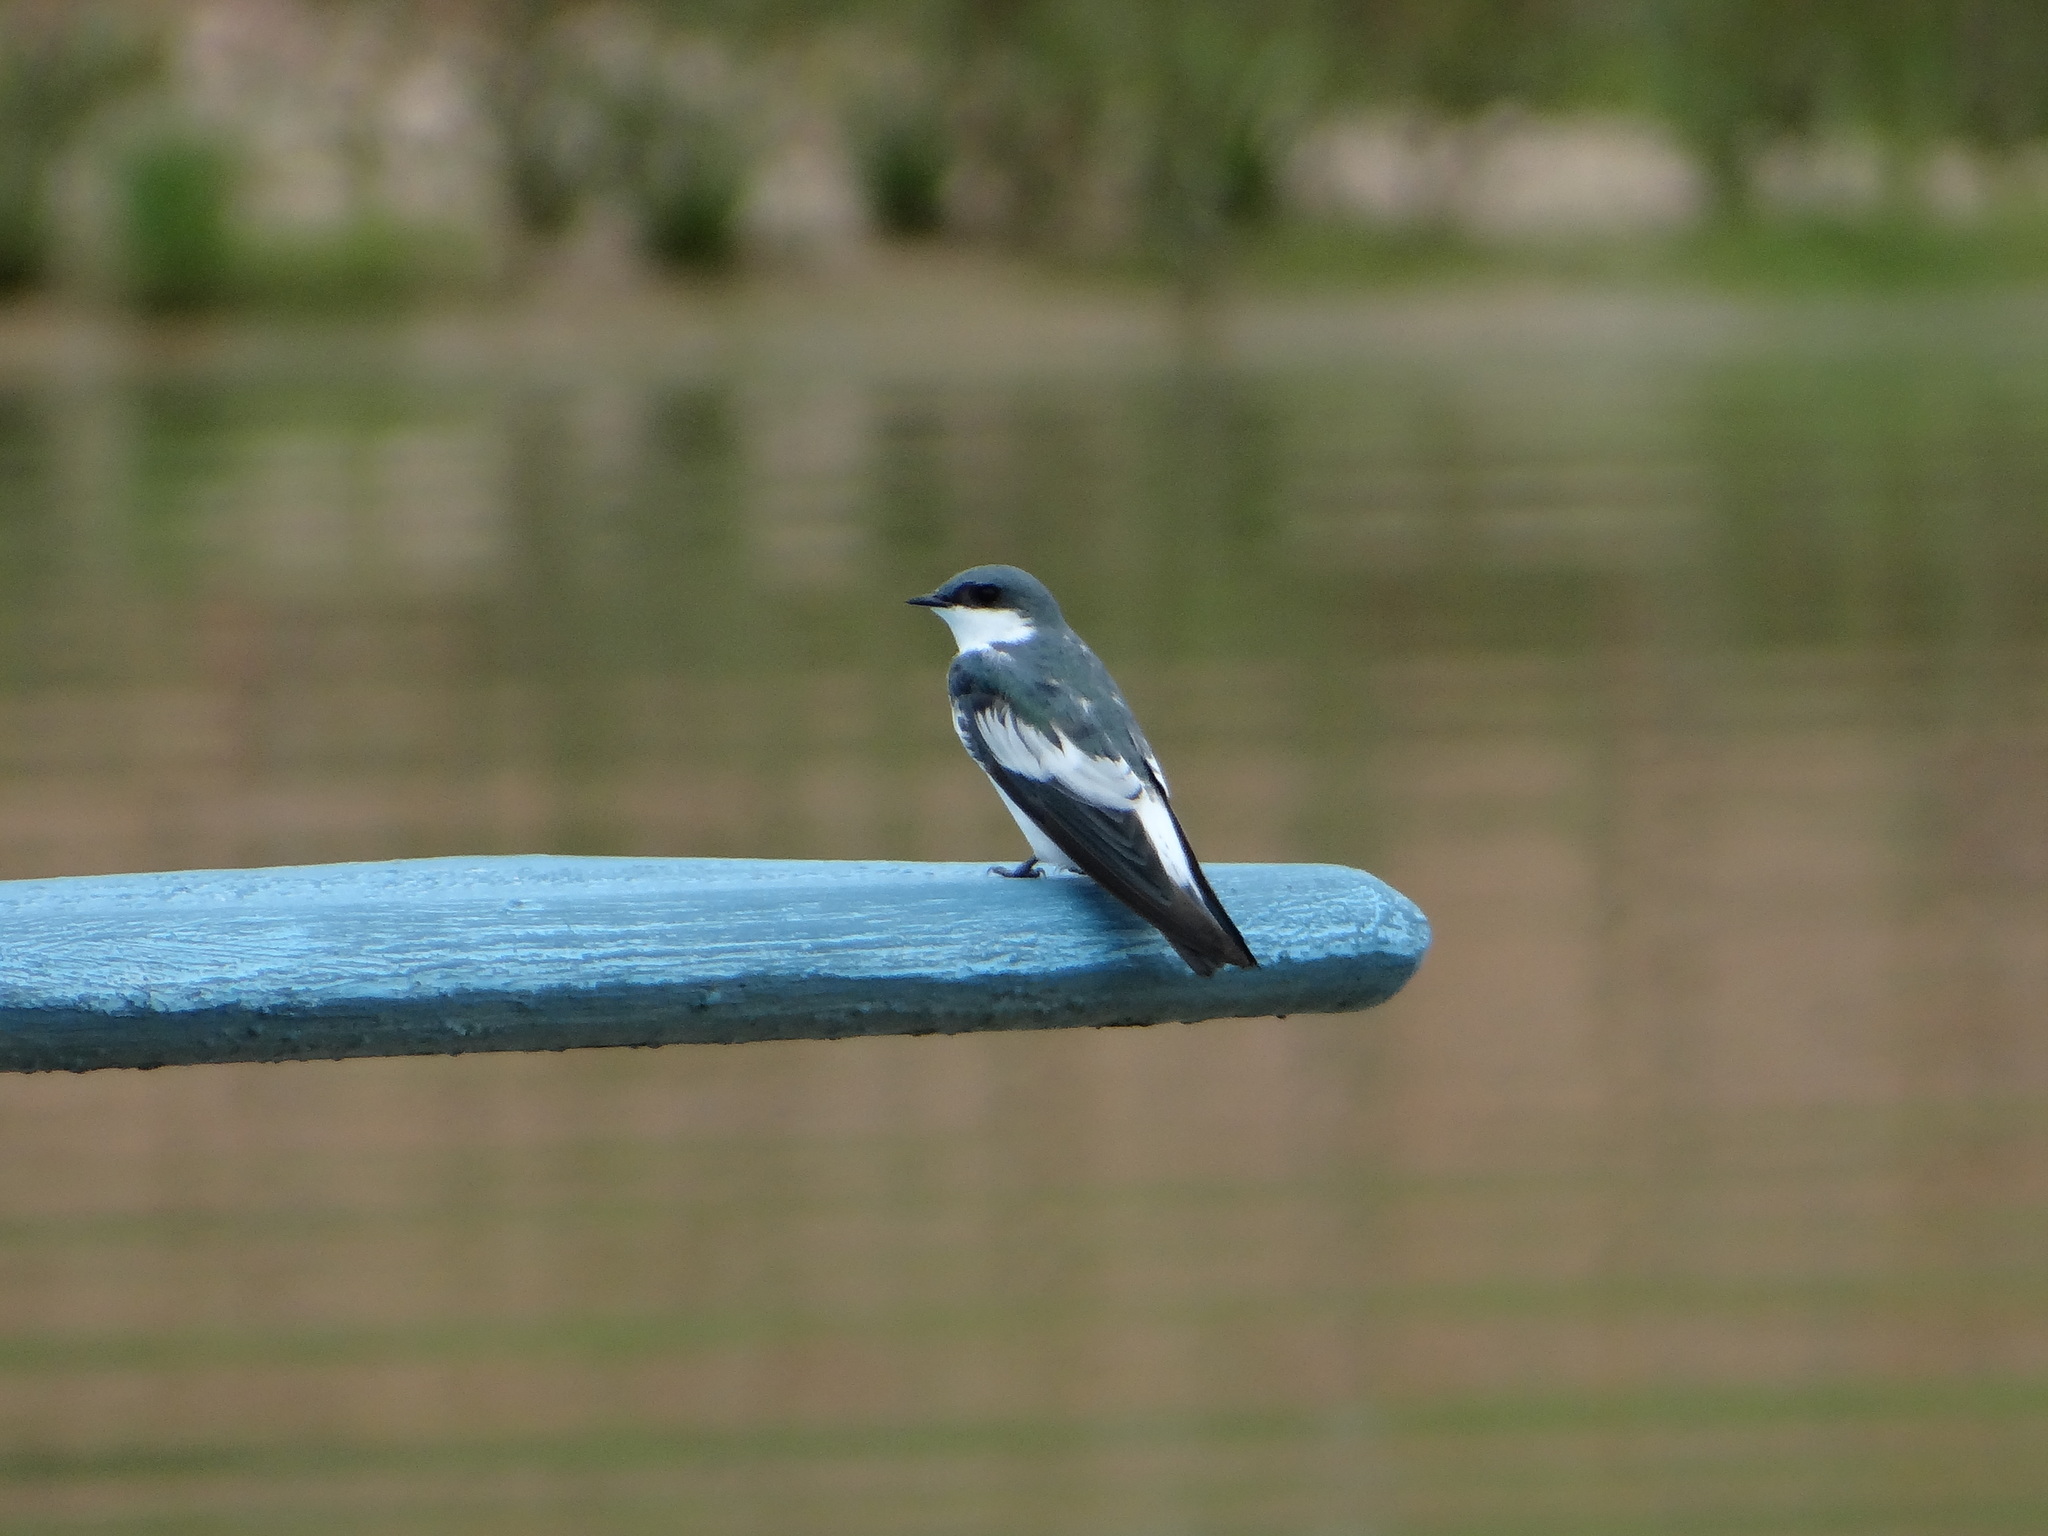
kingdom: Animalia
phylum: Chordata
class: Aves
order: Passeriformes
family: Hirundinidae
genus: Tachycineta
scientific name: Tachycineta albiventer
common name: White-winged swallow
